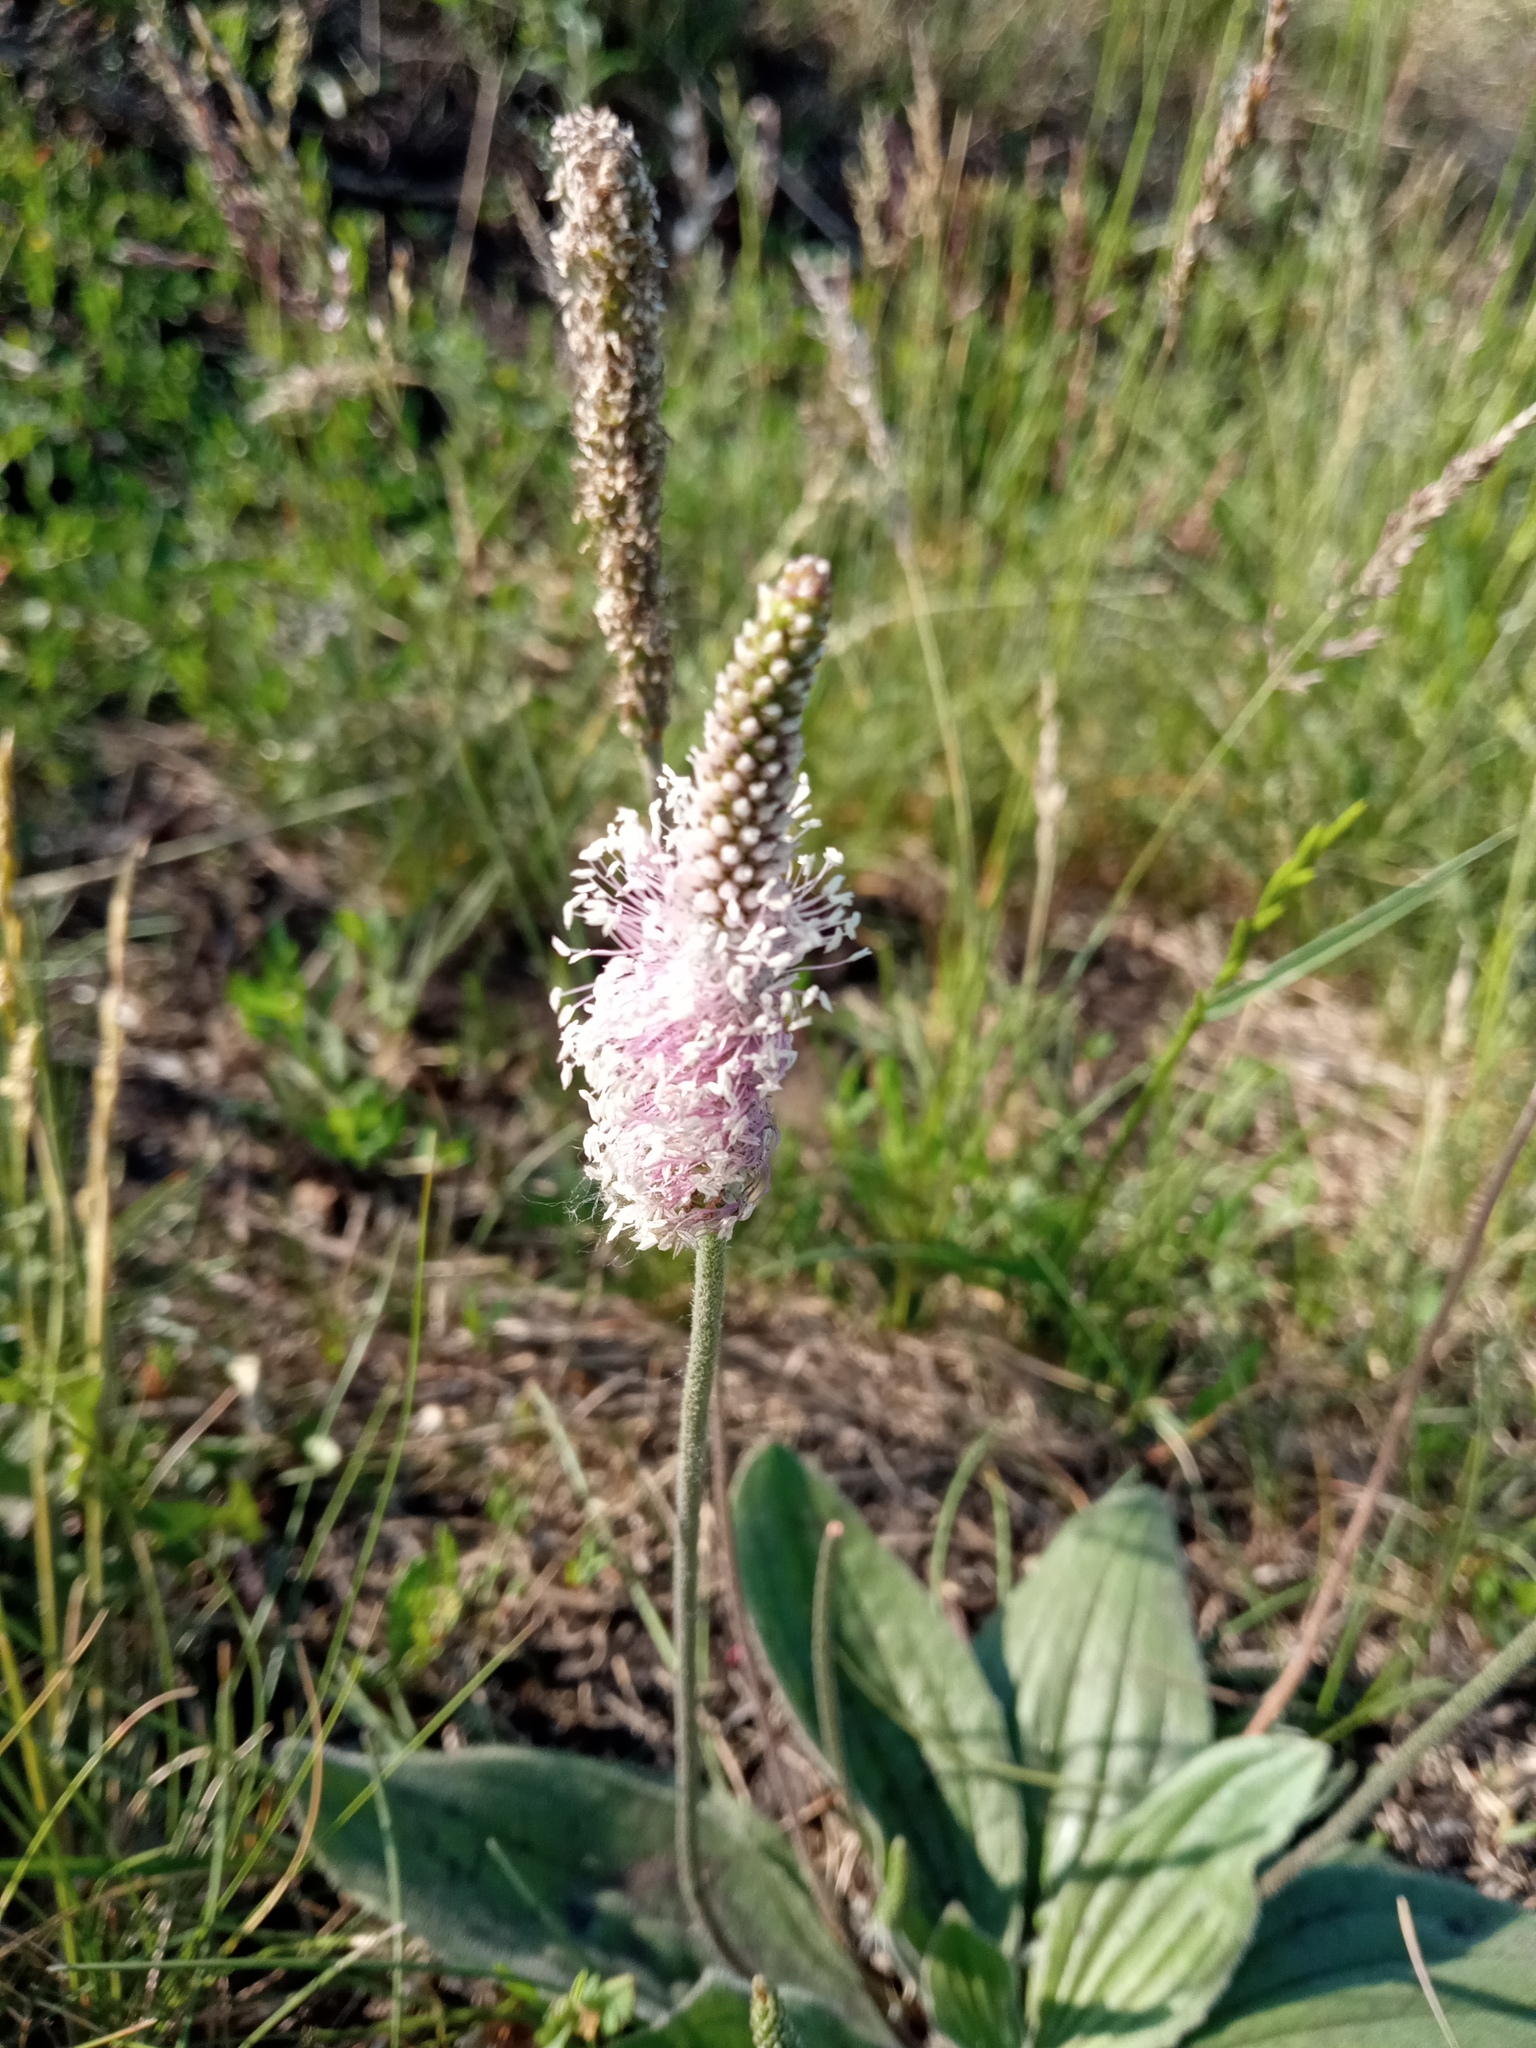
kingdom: Plantae
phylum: Tracheophyta
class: Magnoliopsida
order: Lamiales
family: Plantaginaceae
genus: Plantago
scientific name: Plantago media
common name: Hoary plantain
